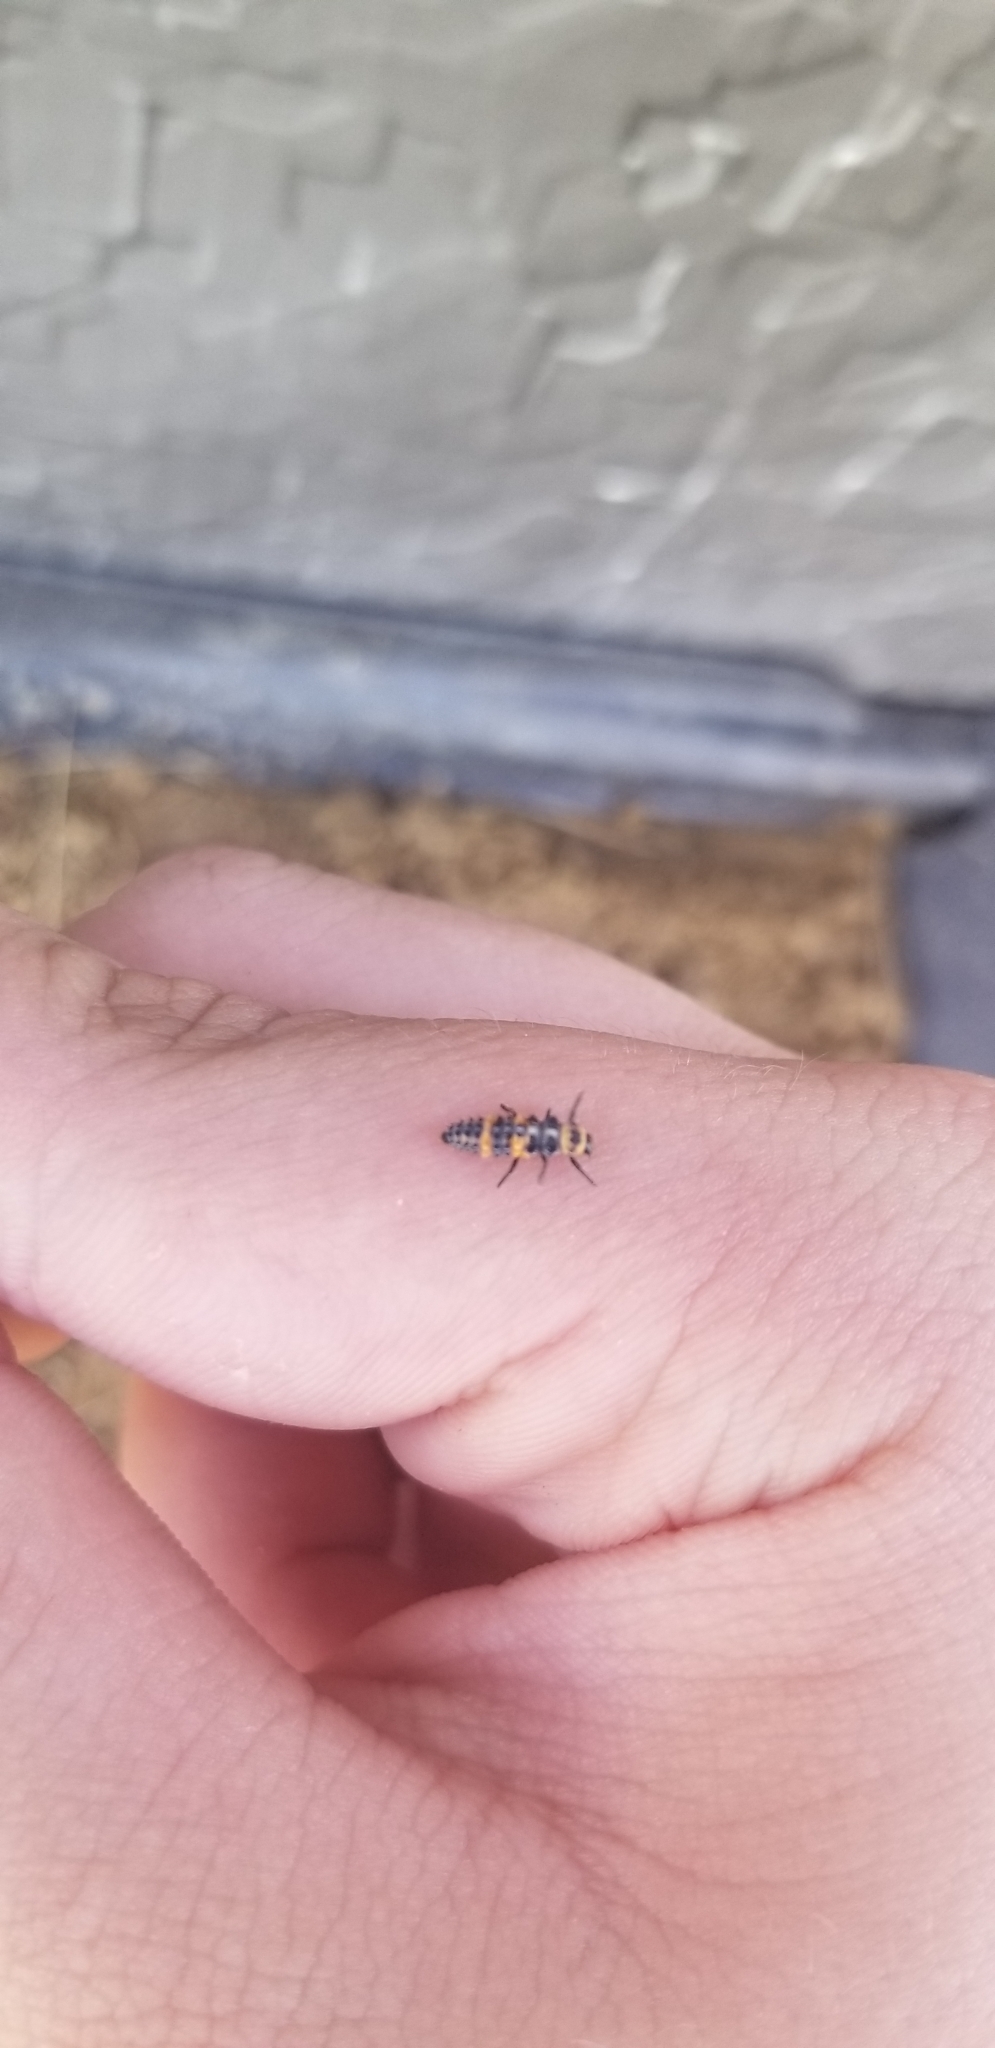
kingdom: Animalia
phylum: Arthropoda
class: Insecta
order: Coleoptera
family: Coccinellidae
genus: Coleomegilla
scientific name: Coleomegilla maculata
